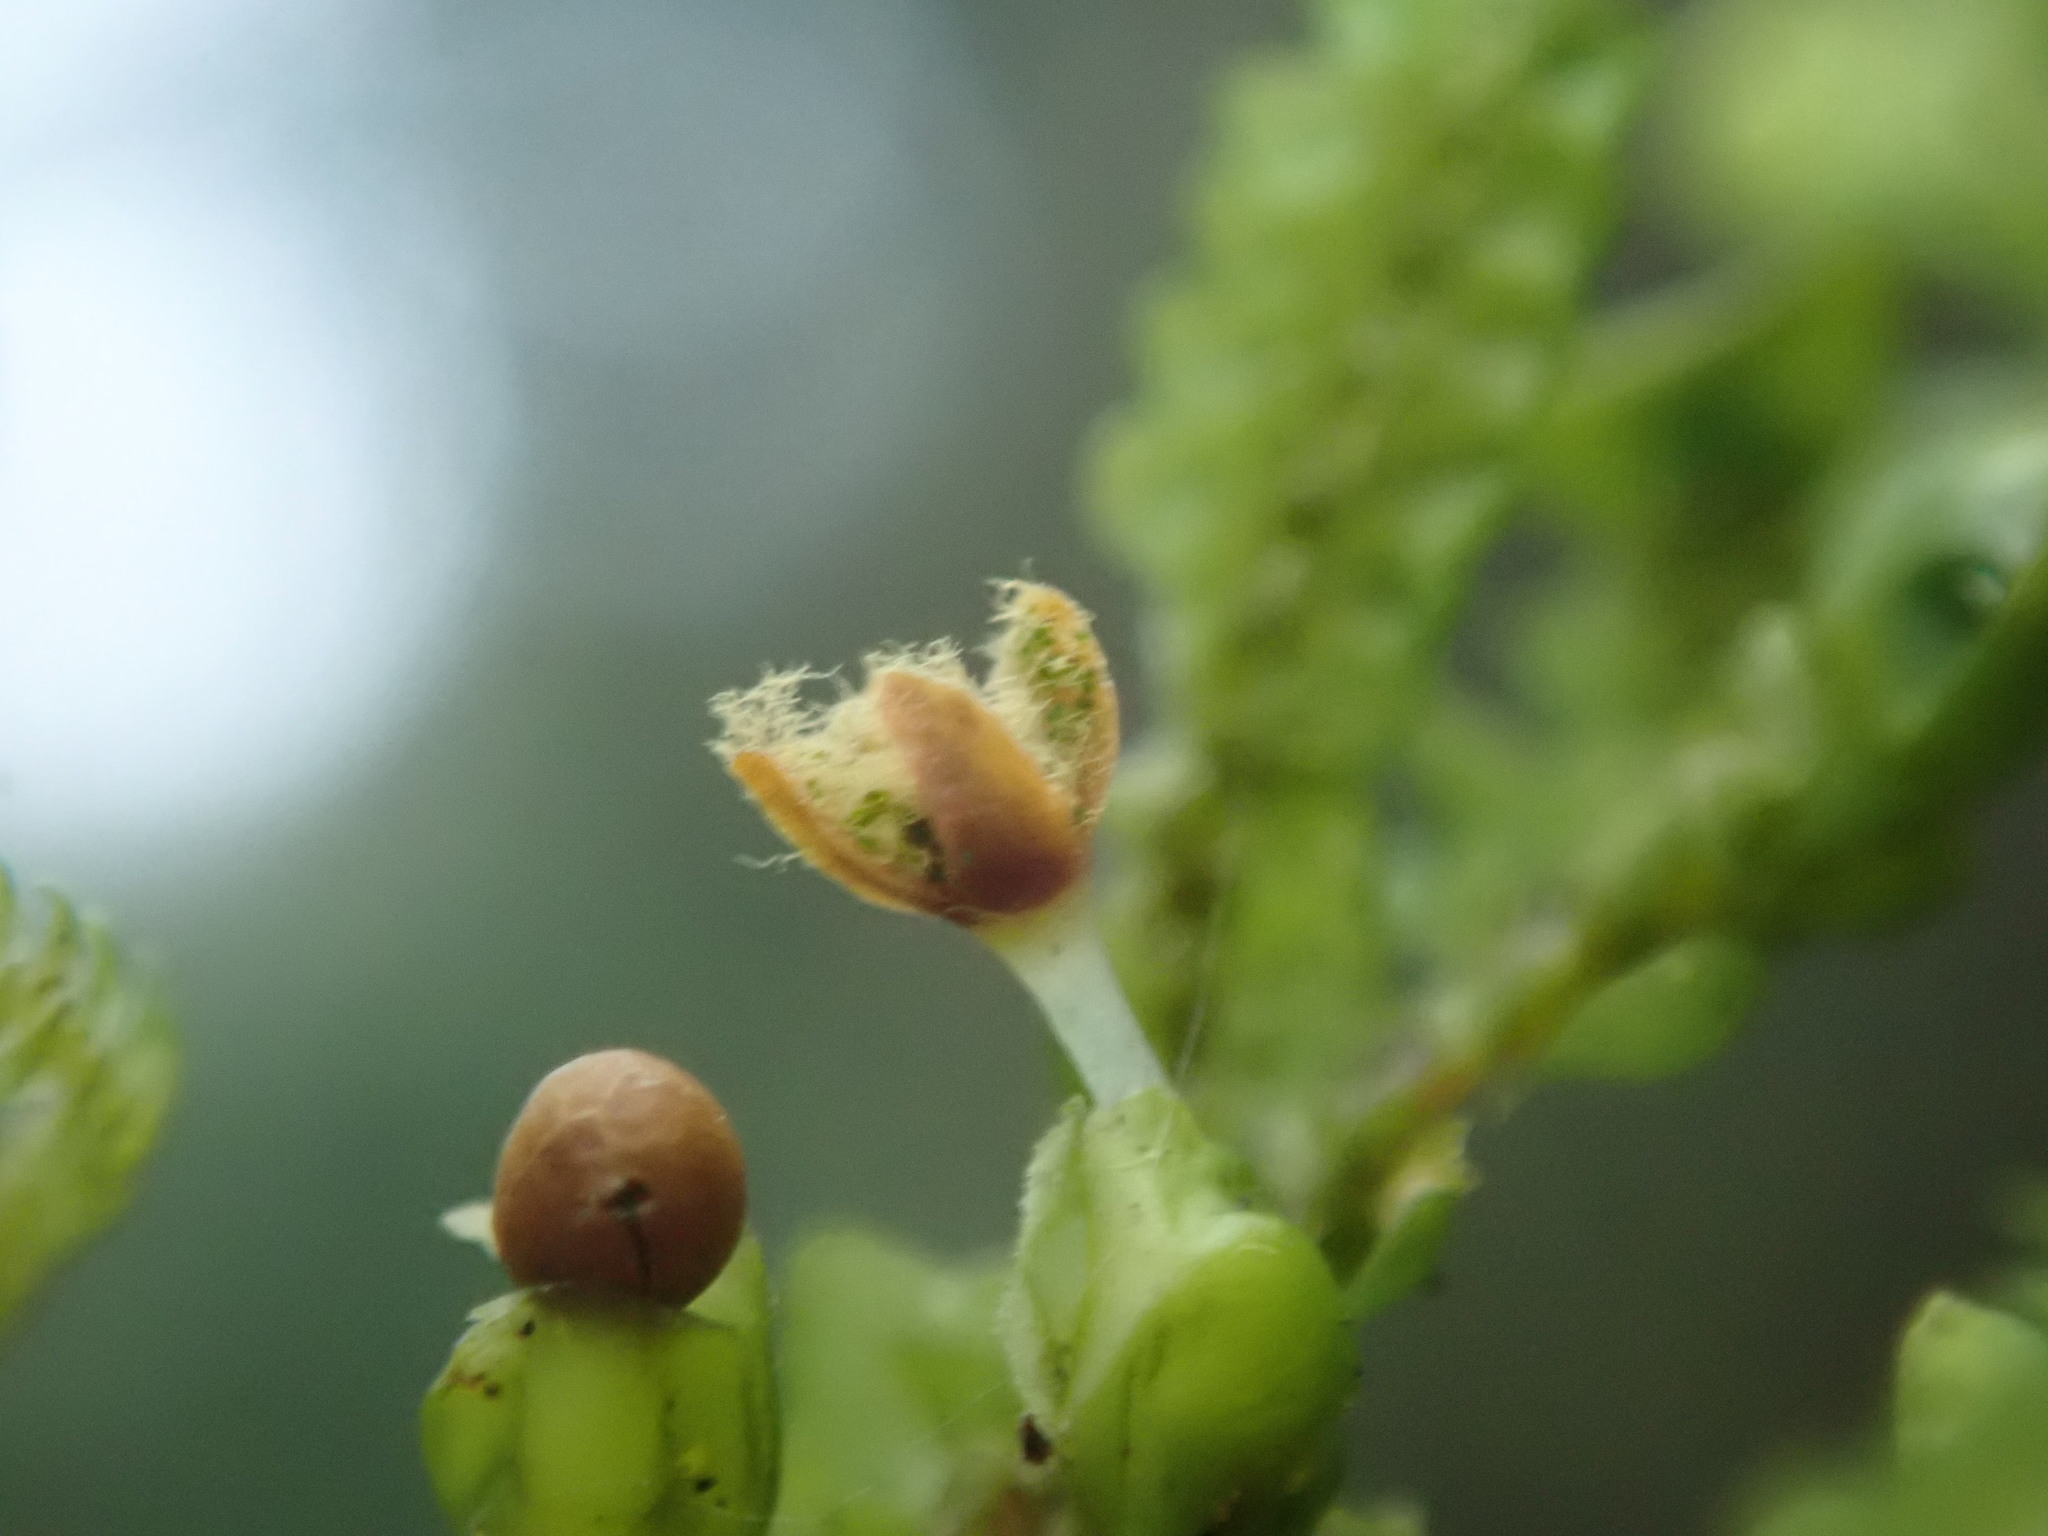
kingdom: Plantae
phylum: Marchantiophyta
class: Jungermanniopsida
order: Porellales
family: Porellaceae
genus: Porella
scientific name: Porella navicularis
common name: Tree ruffle liverwort
